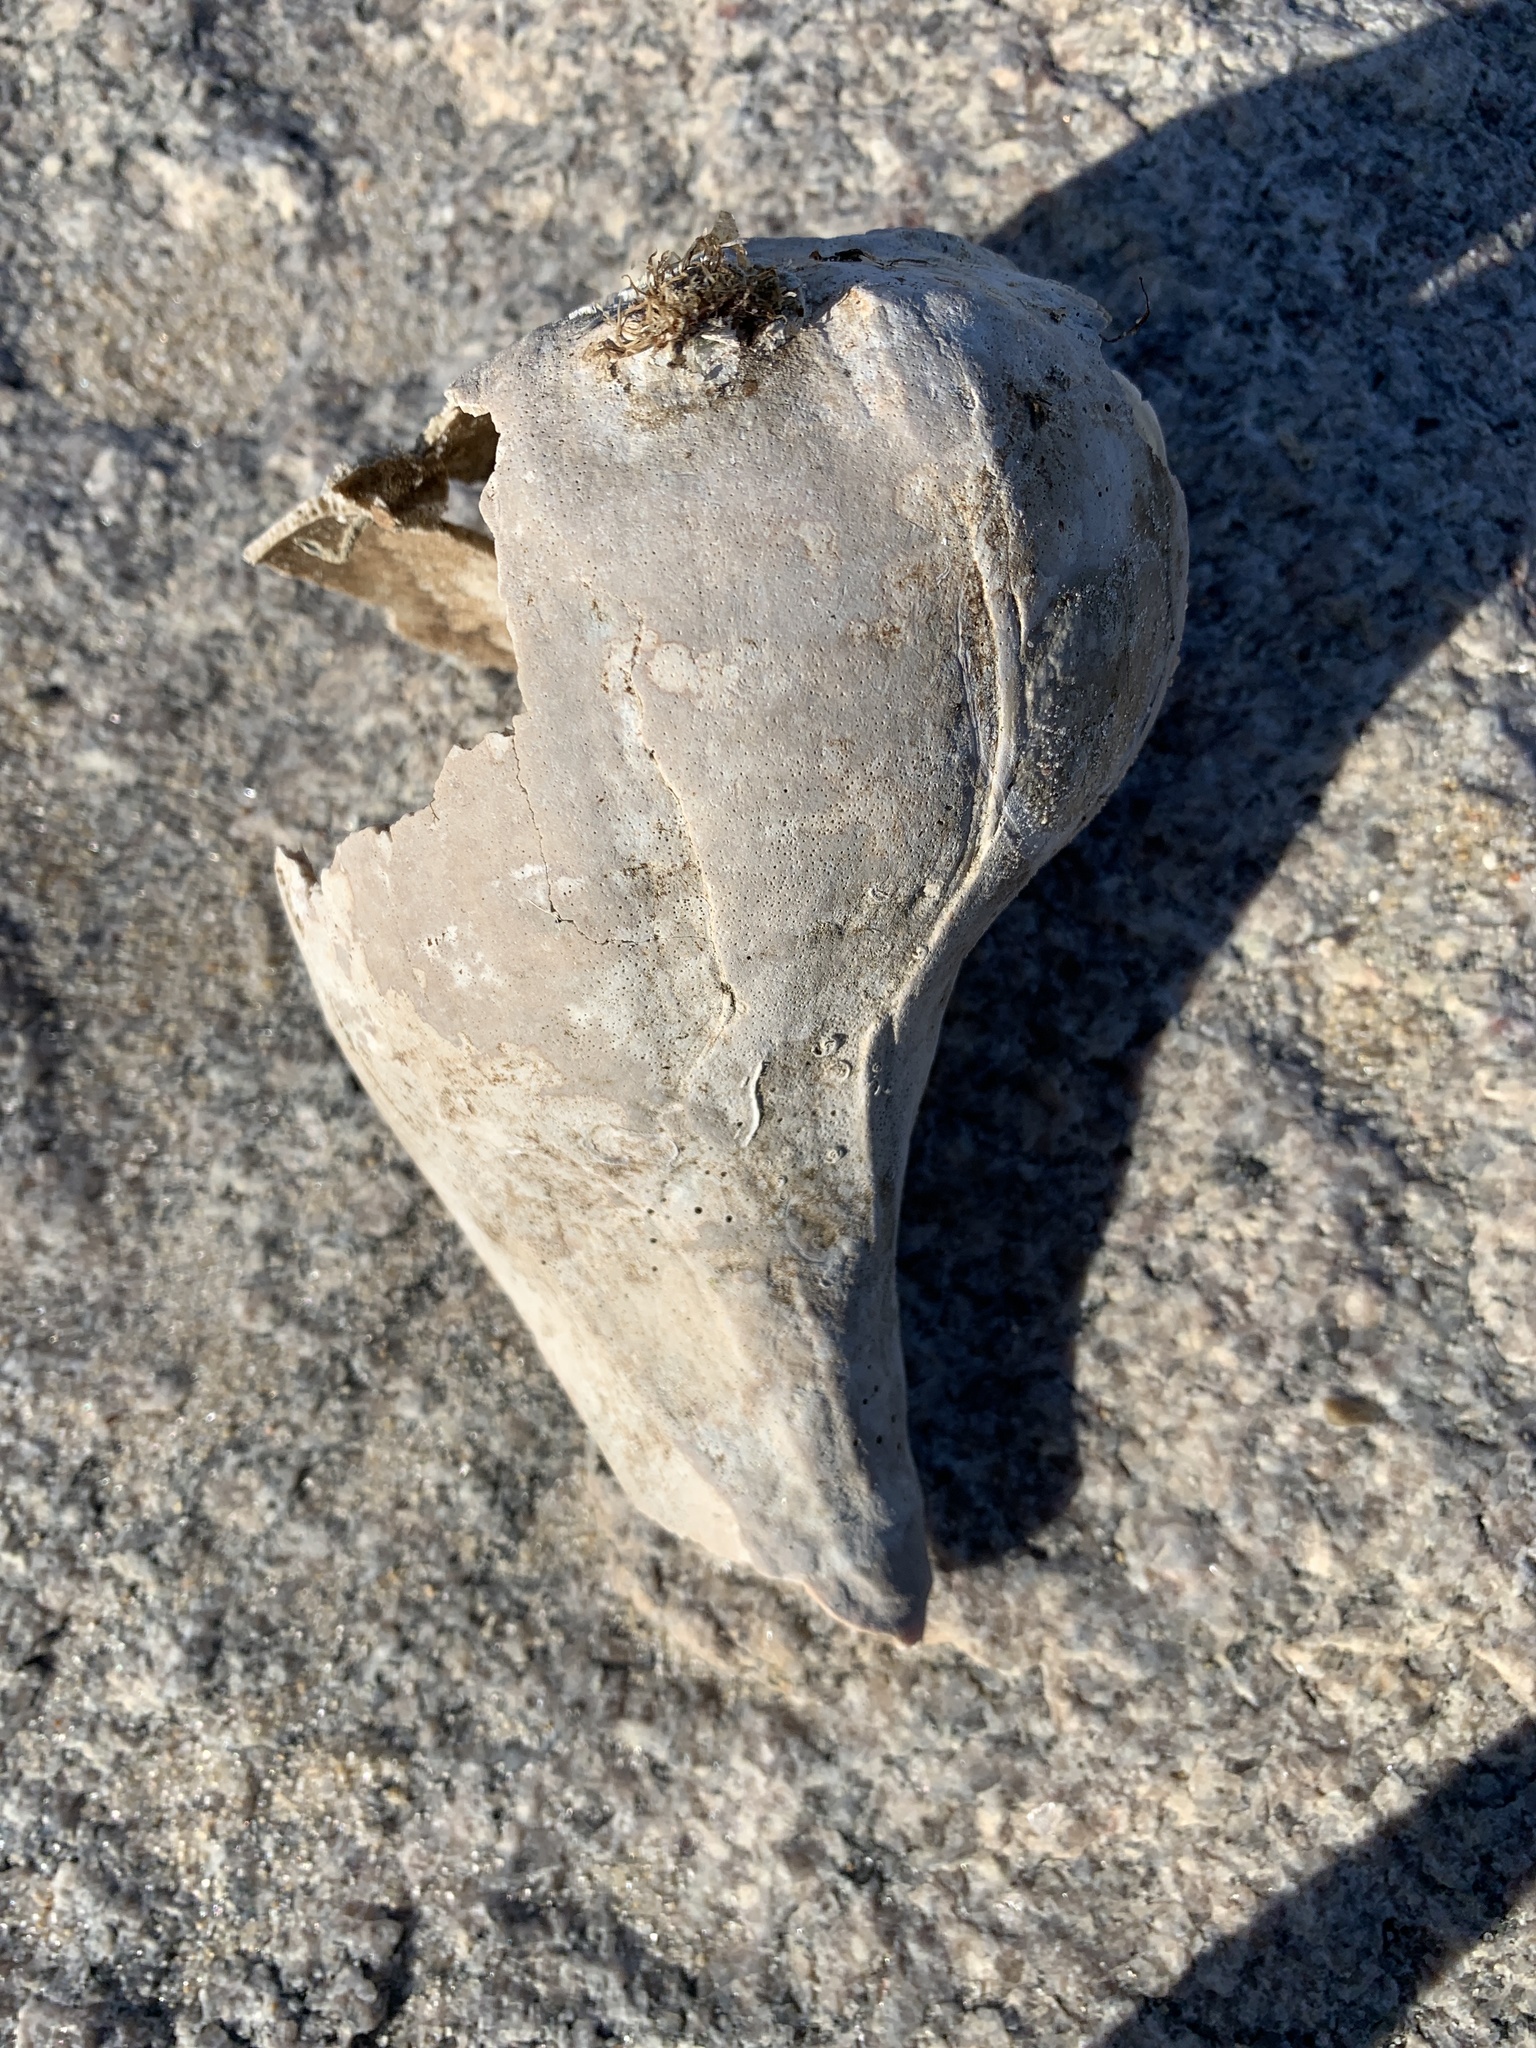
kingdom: Animalia
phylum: Mollusca
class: Gastropoda
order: Neogastropoda
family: Busyconidae
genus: Busycon
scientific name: Busycon carica
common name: Knobbed whelk
